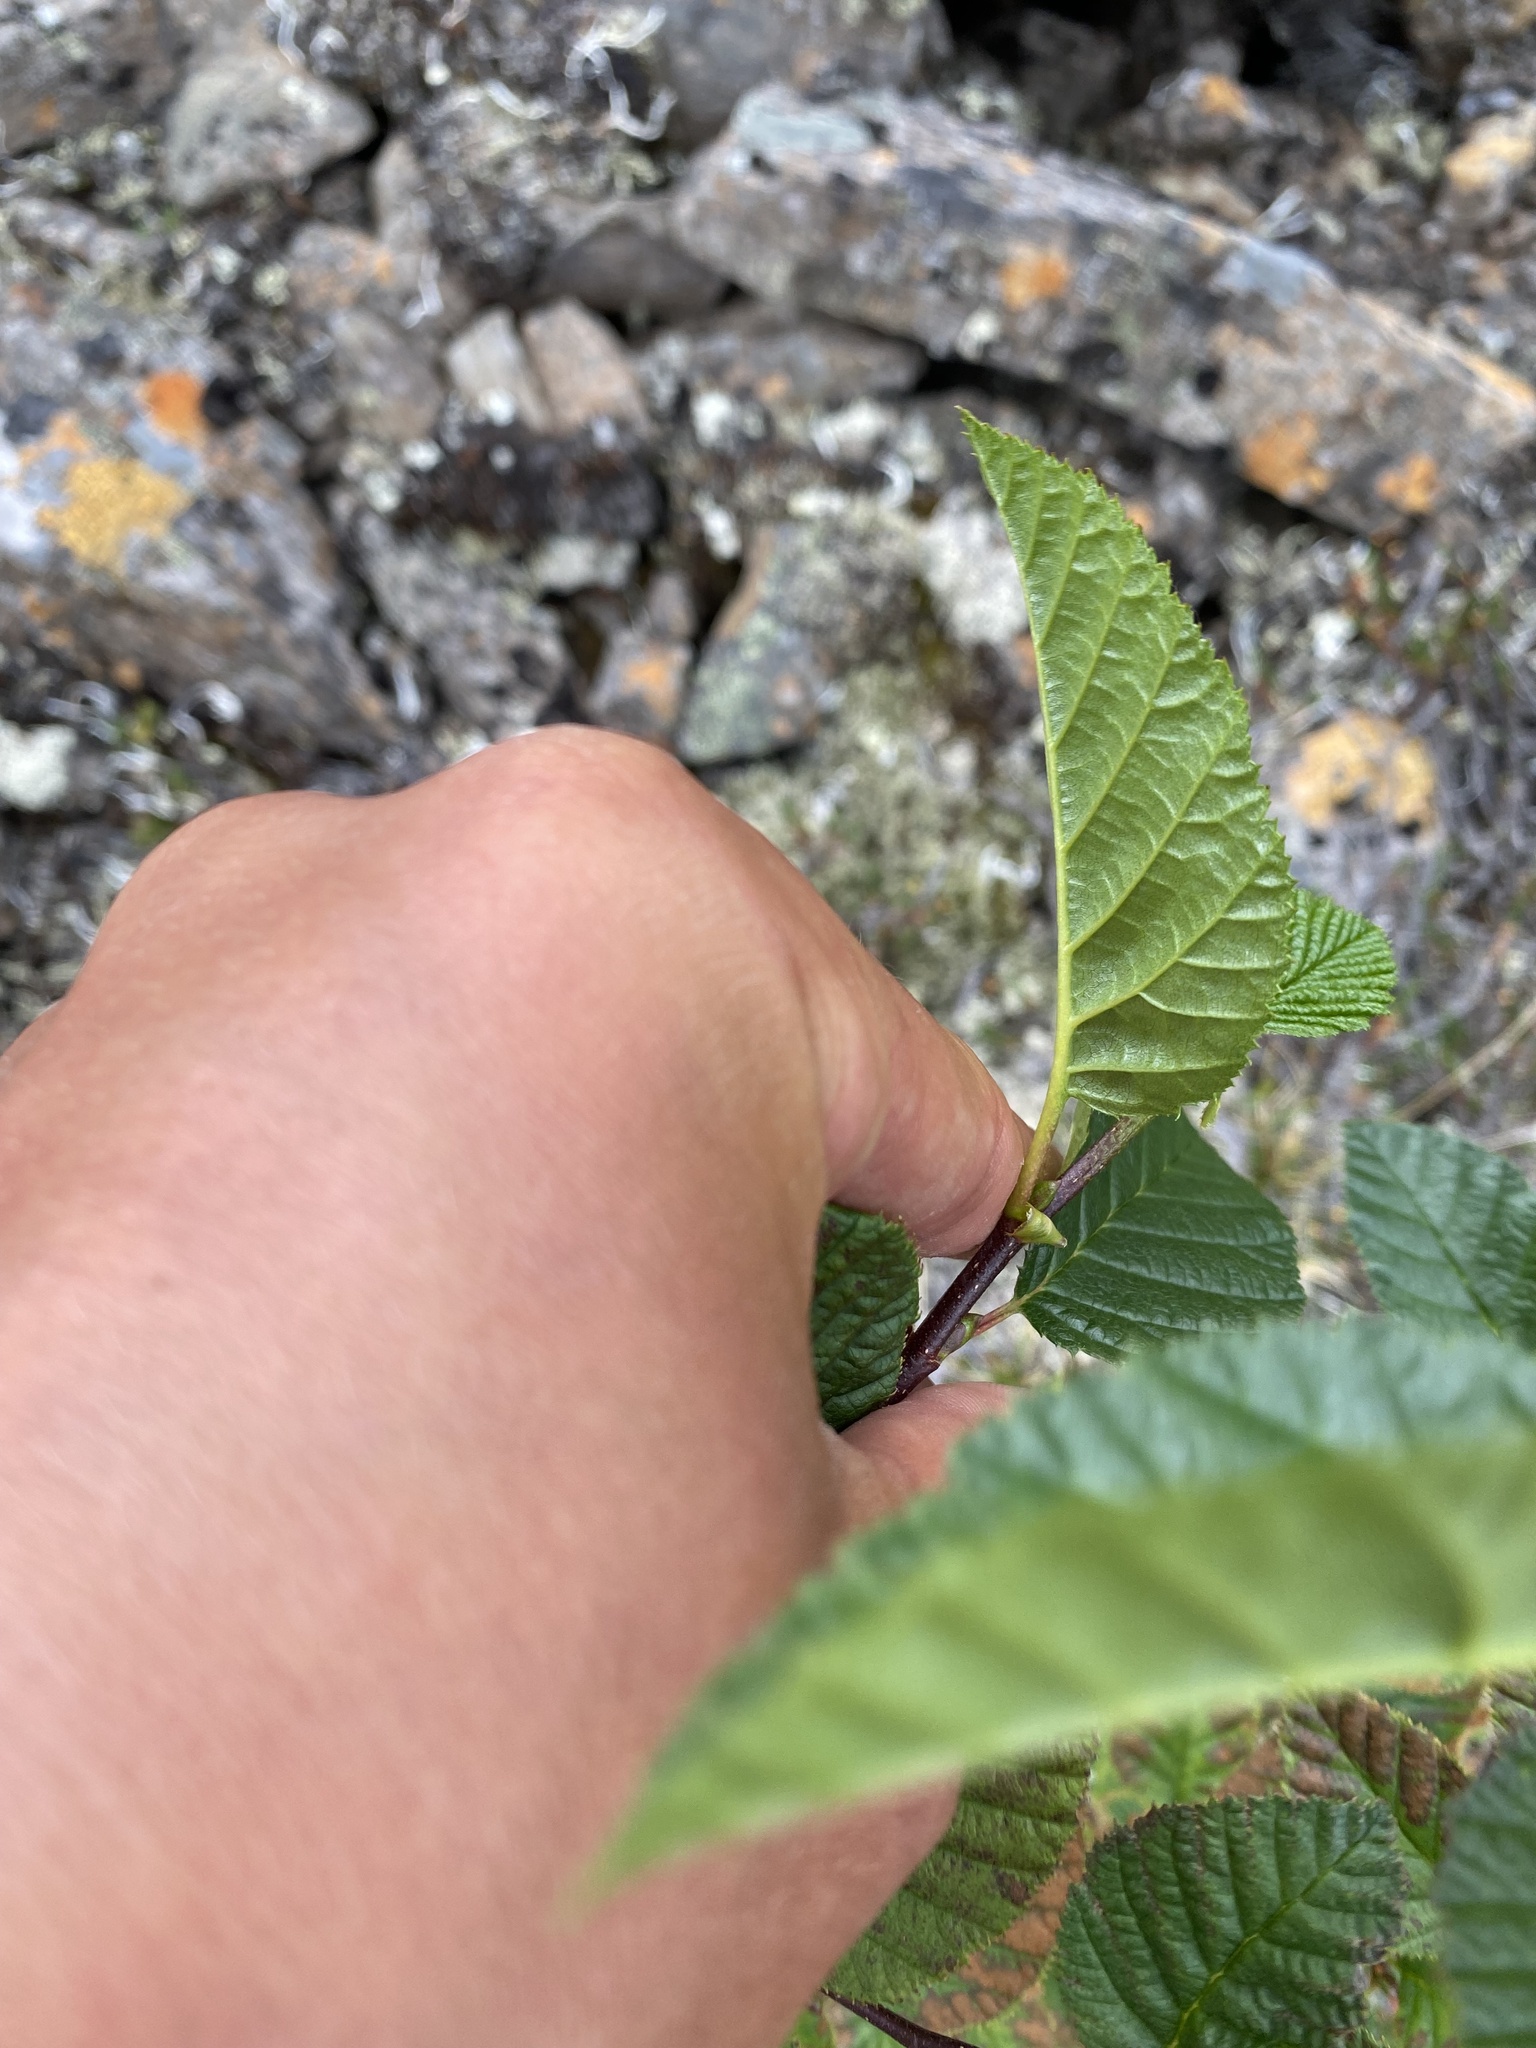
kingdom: Plantae
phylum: Tracheophyta
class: Magnoliopsida
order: Fagales
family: Betulaceae
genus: Alnus
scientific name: Alnus alnobetula
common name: Green alder
